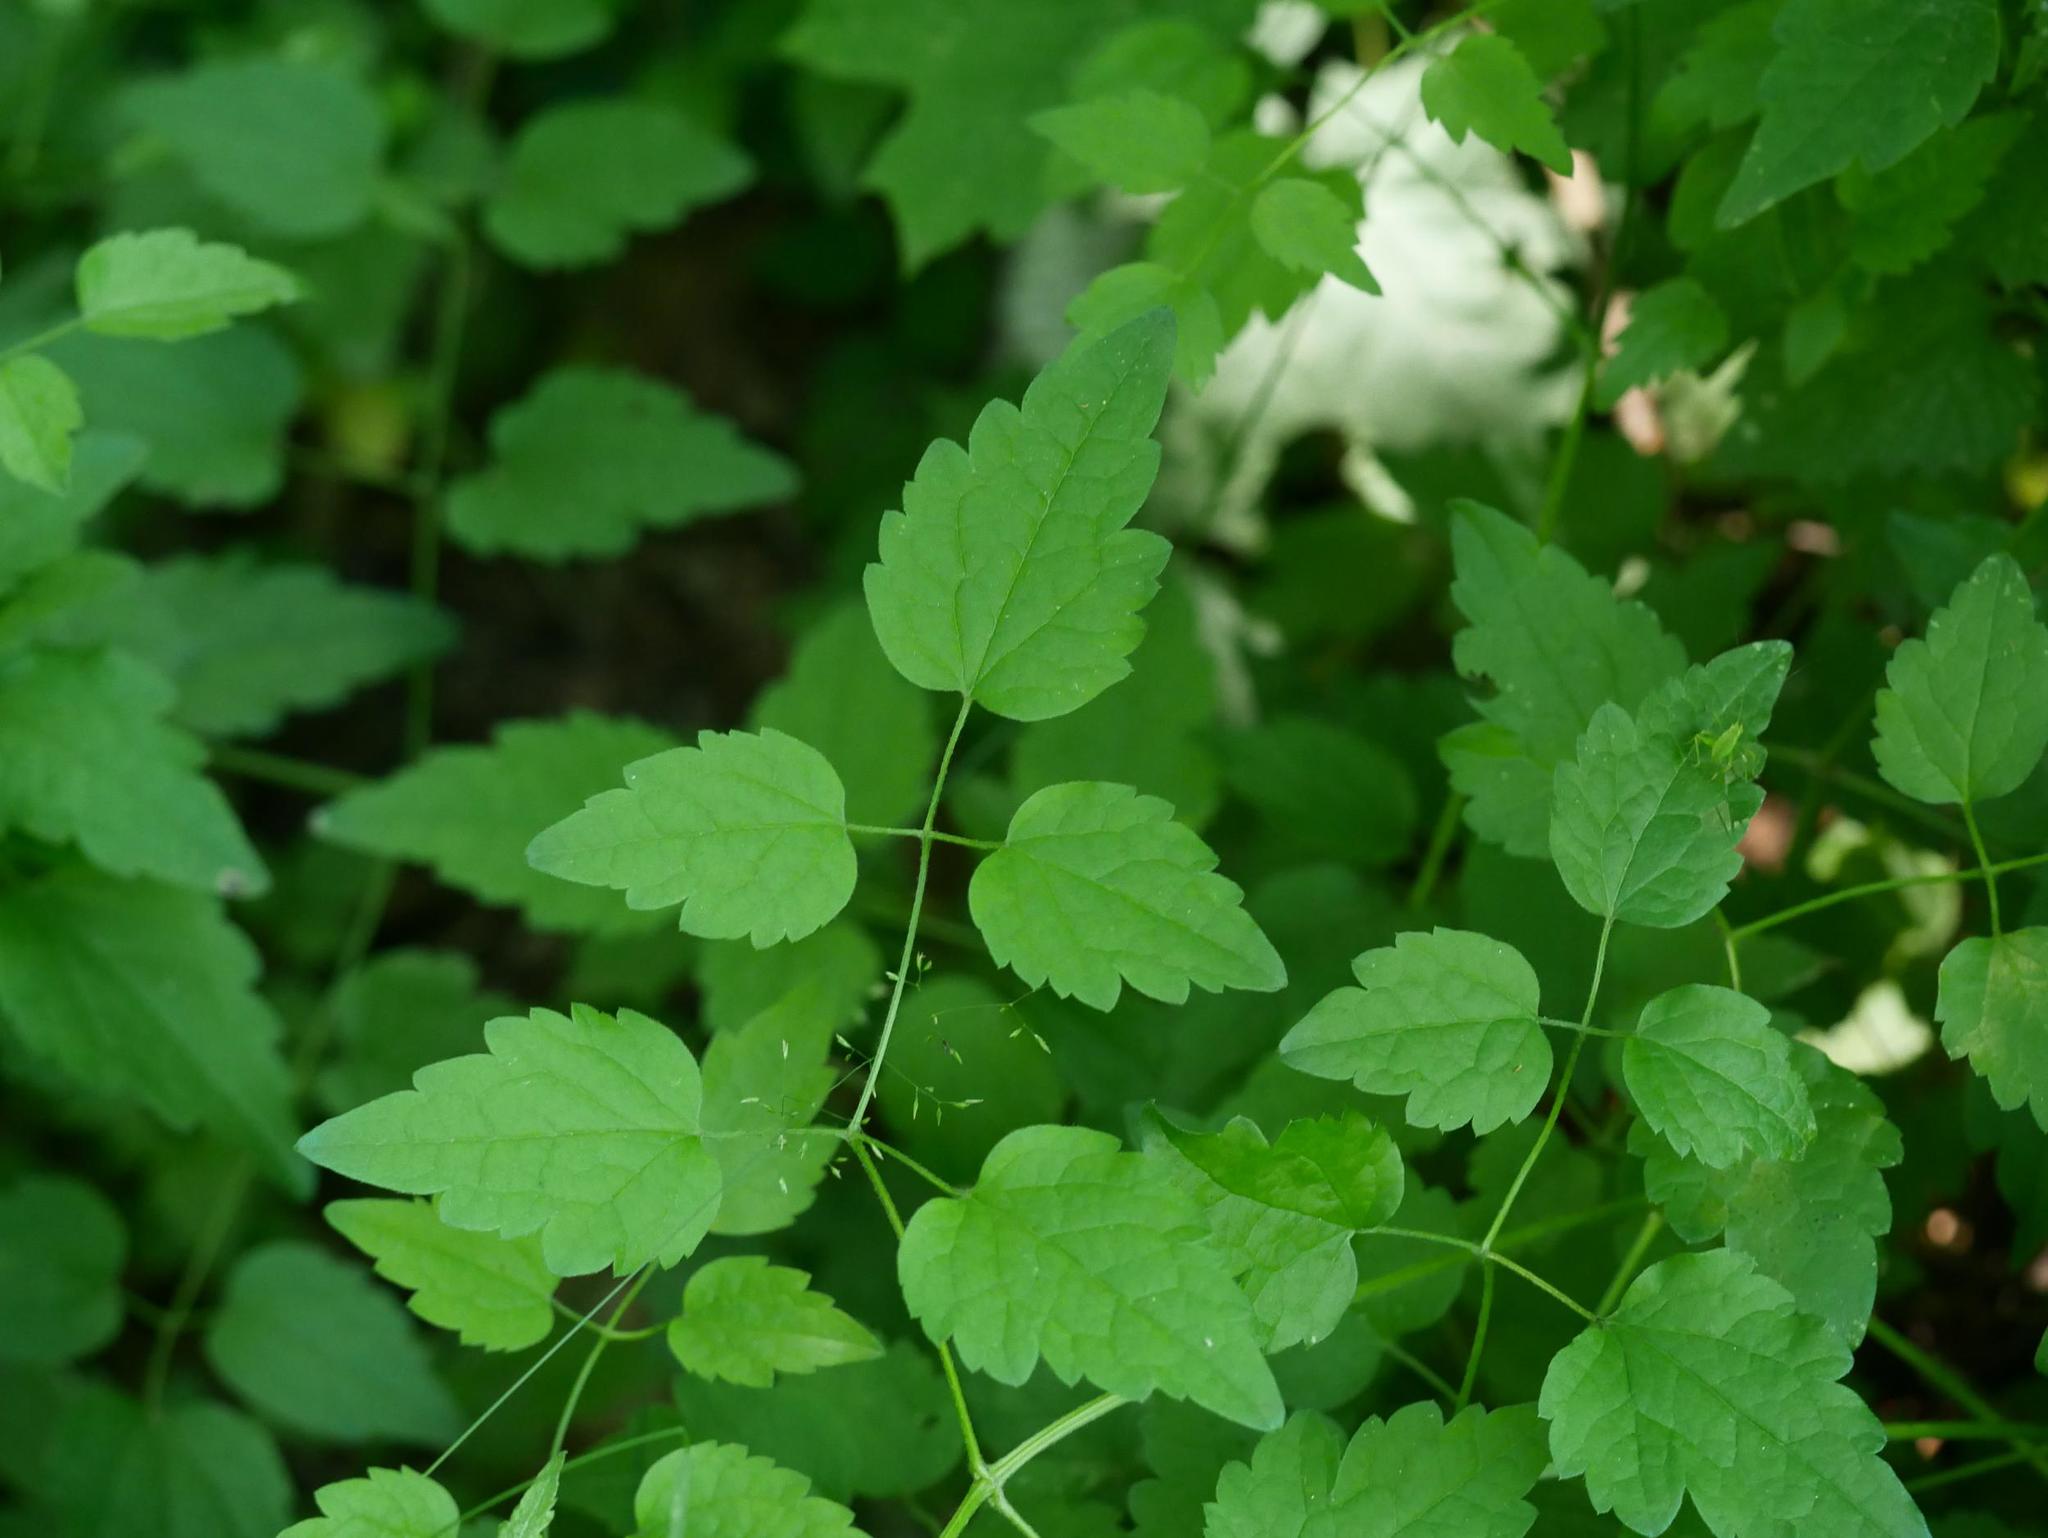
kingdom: Plantae
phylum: Tracheophyta
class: Magnoliopsida
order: Ranunculales
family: Ranunculaceae
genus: Clematis
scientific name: Clematis vitalba
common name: Evergreen clematis
